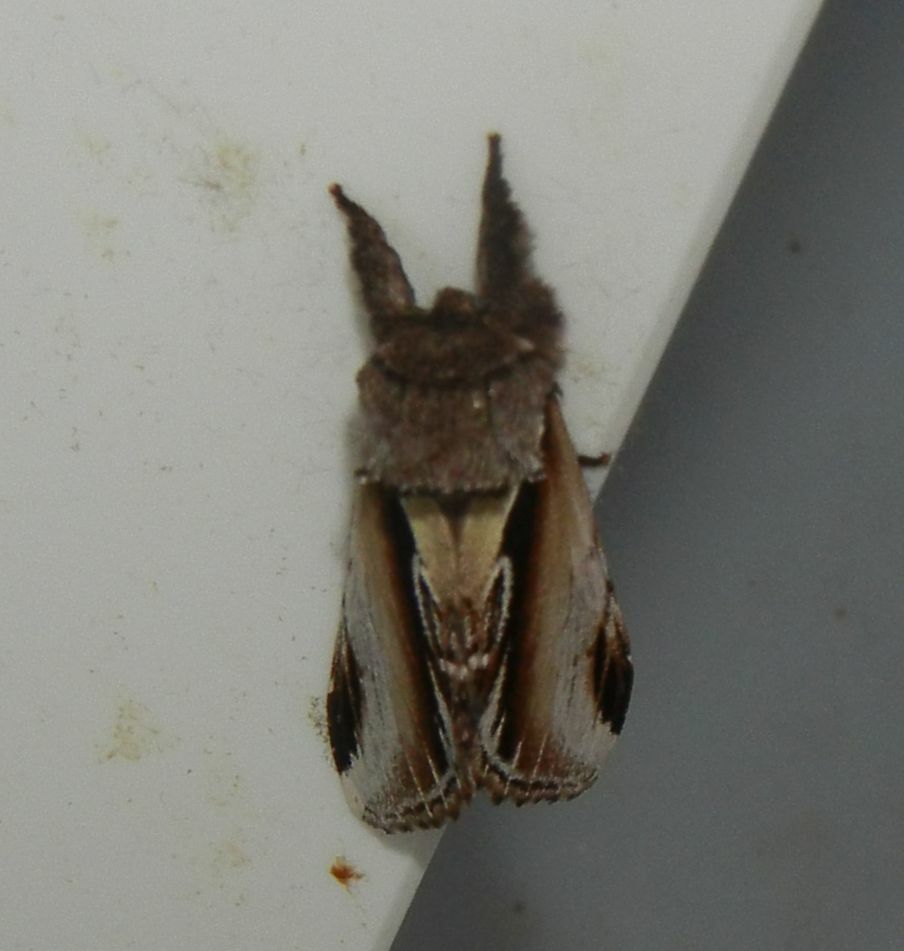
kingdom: Animalia
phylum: Arthropoda
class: Insecta
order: Lepidoptera
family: Notodontidae
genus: Pheosia
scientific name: Pheosia gnoma
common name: Lesser swallow prominent
